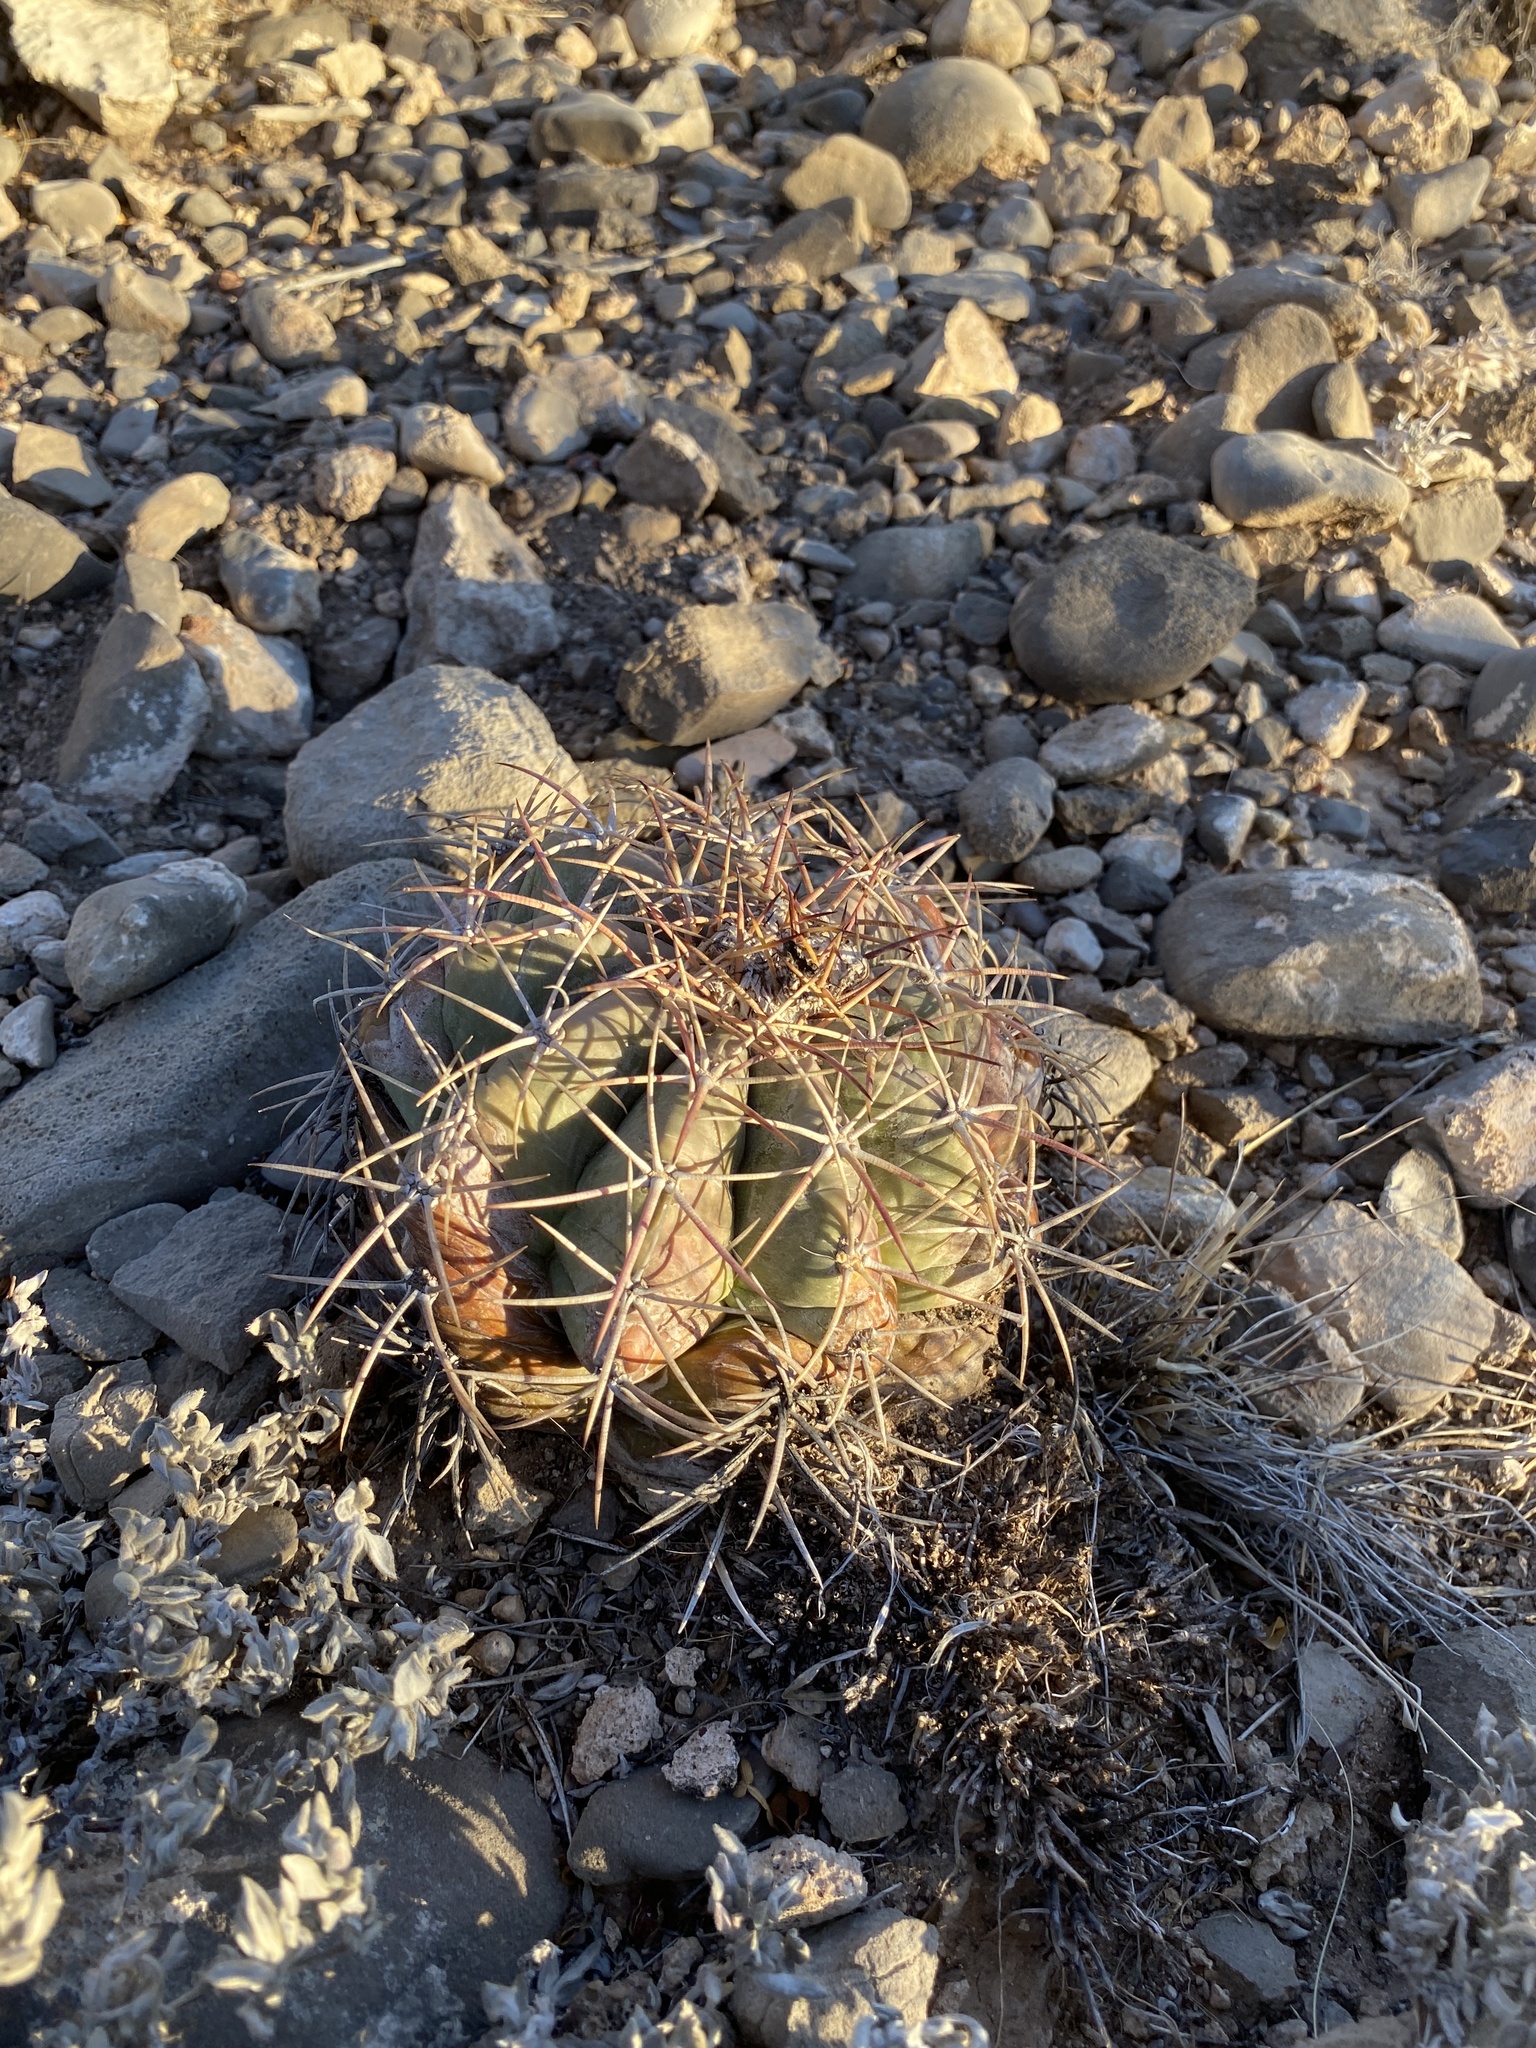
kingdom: Plantae
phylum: Tracheophyta
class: Magnoliopsida
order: Caryophyllales
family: Cactaceae
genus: Echinocactus
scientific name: Echinocactus horizonthalonius
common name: Devilshead
